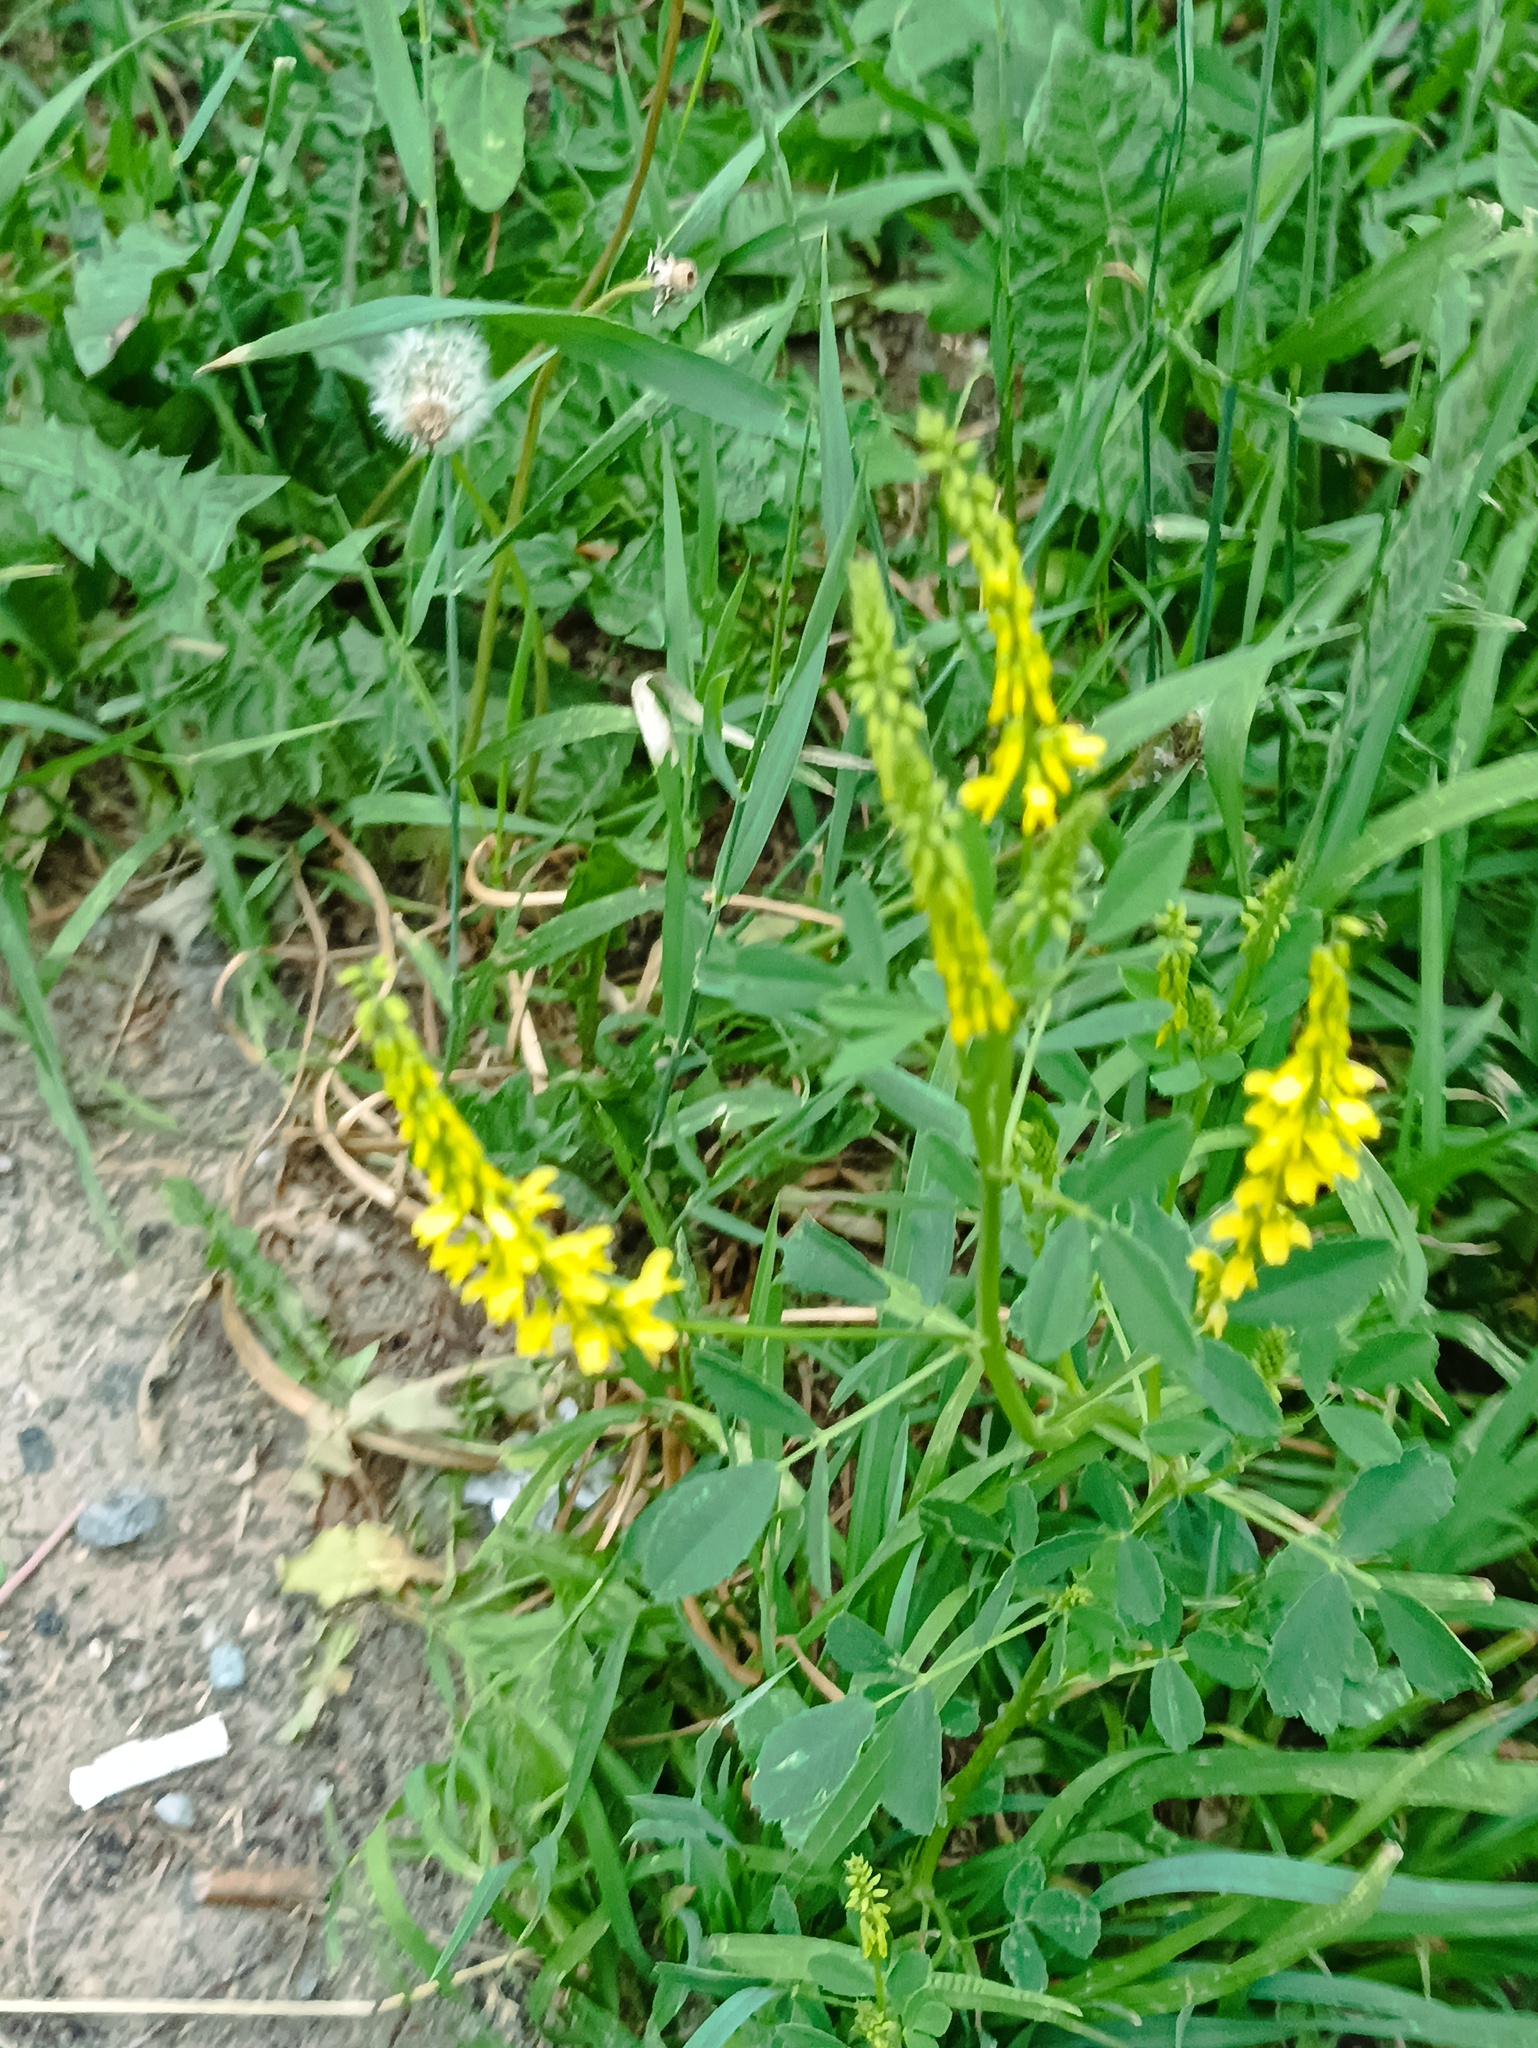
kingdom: Plantae
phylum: Tracheophyta
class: Magnoliopsida
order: Fabales
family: Fabaceae
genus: Melilotus
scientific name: Melilotus officinalis
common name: Sweetclover
